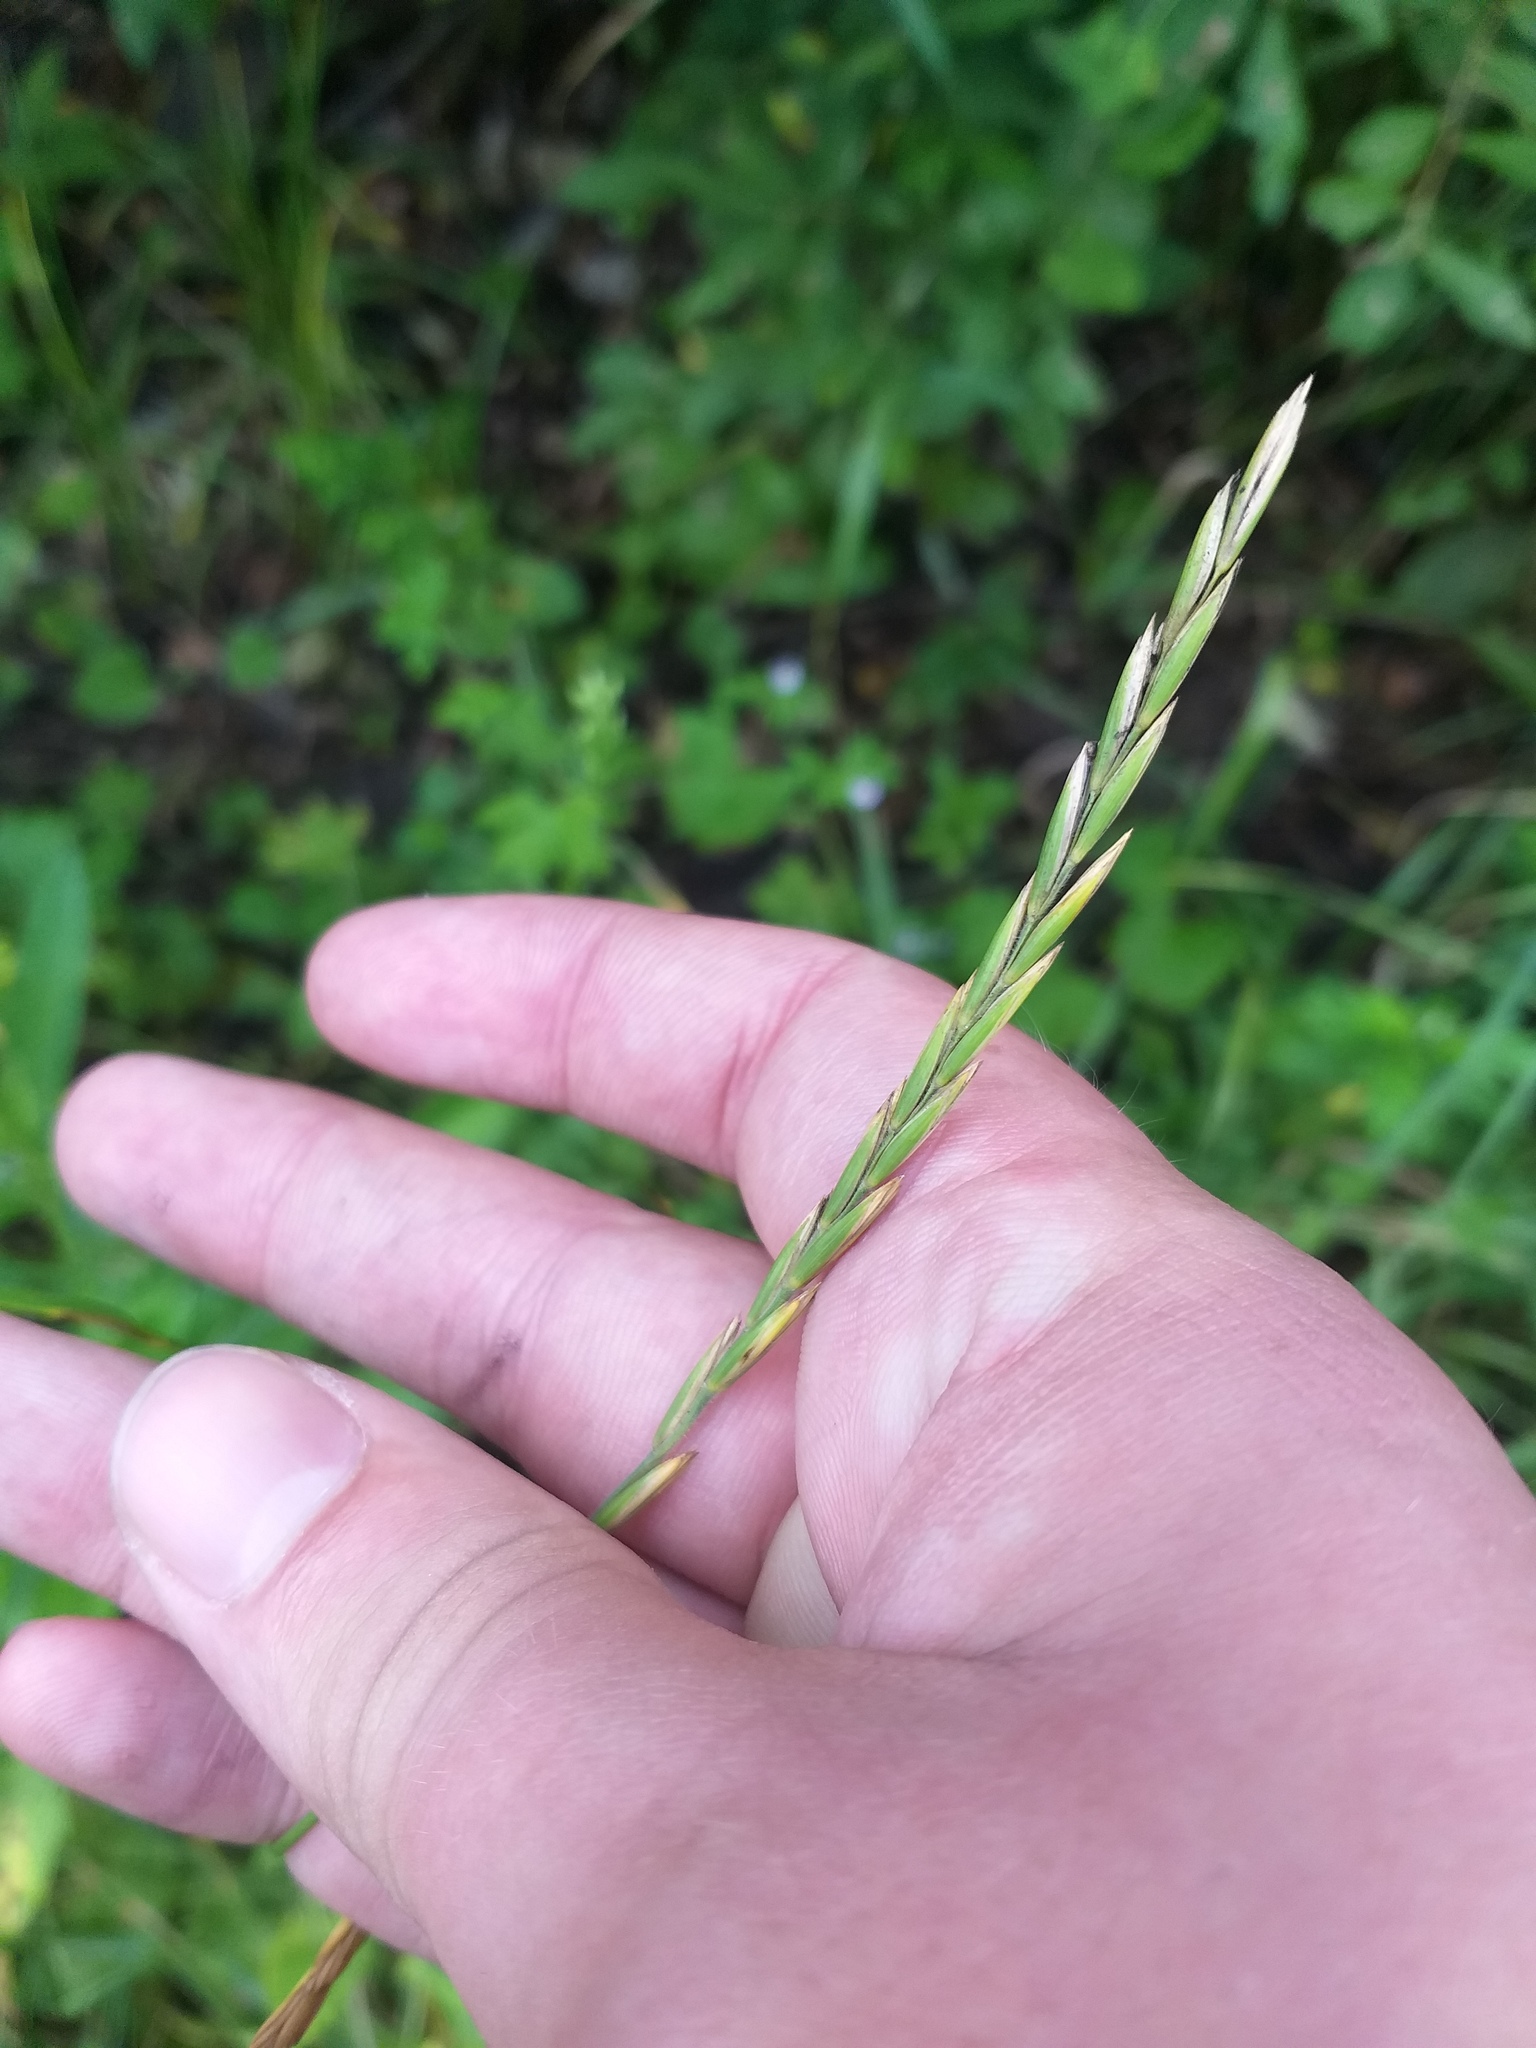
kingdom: Plantae
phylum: Tracheophyta
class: Liliopsida
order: Poales
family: Poaceae
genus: Elymus
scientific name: Elymus repens
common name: Quackgrass
